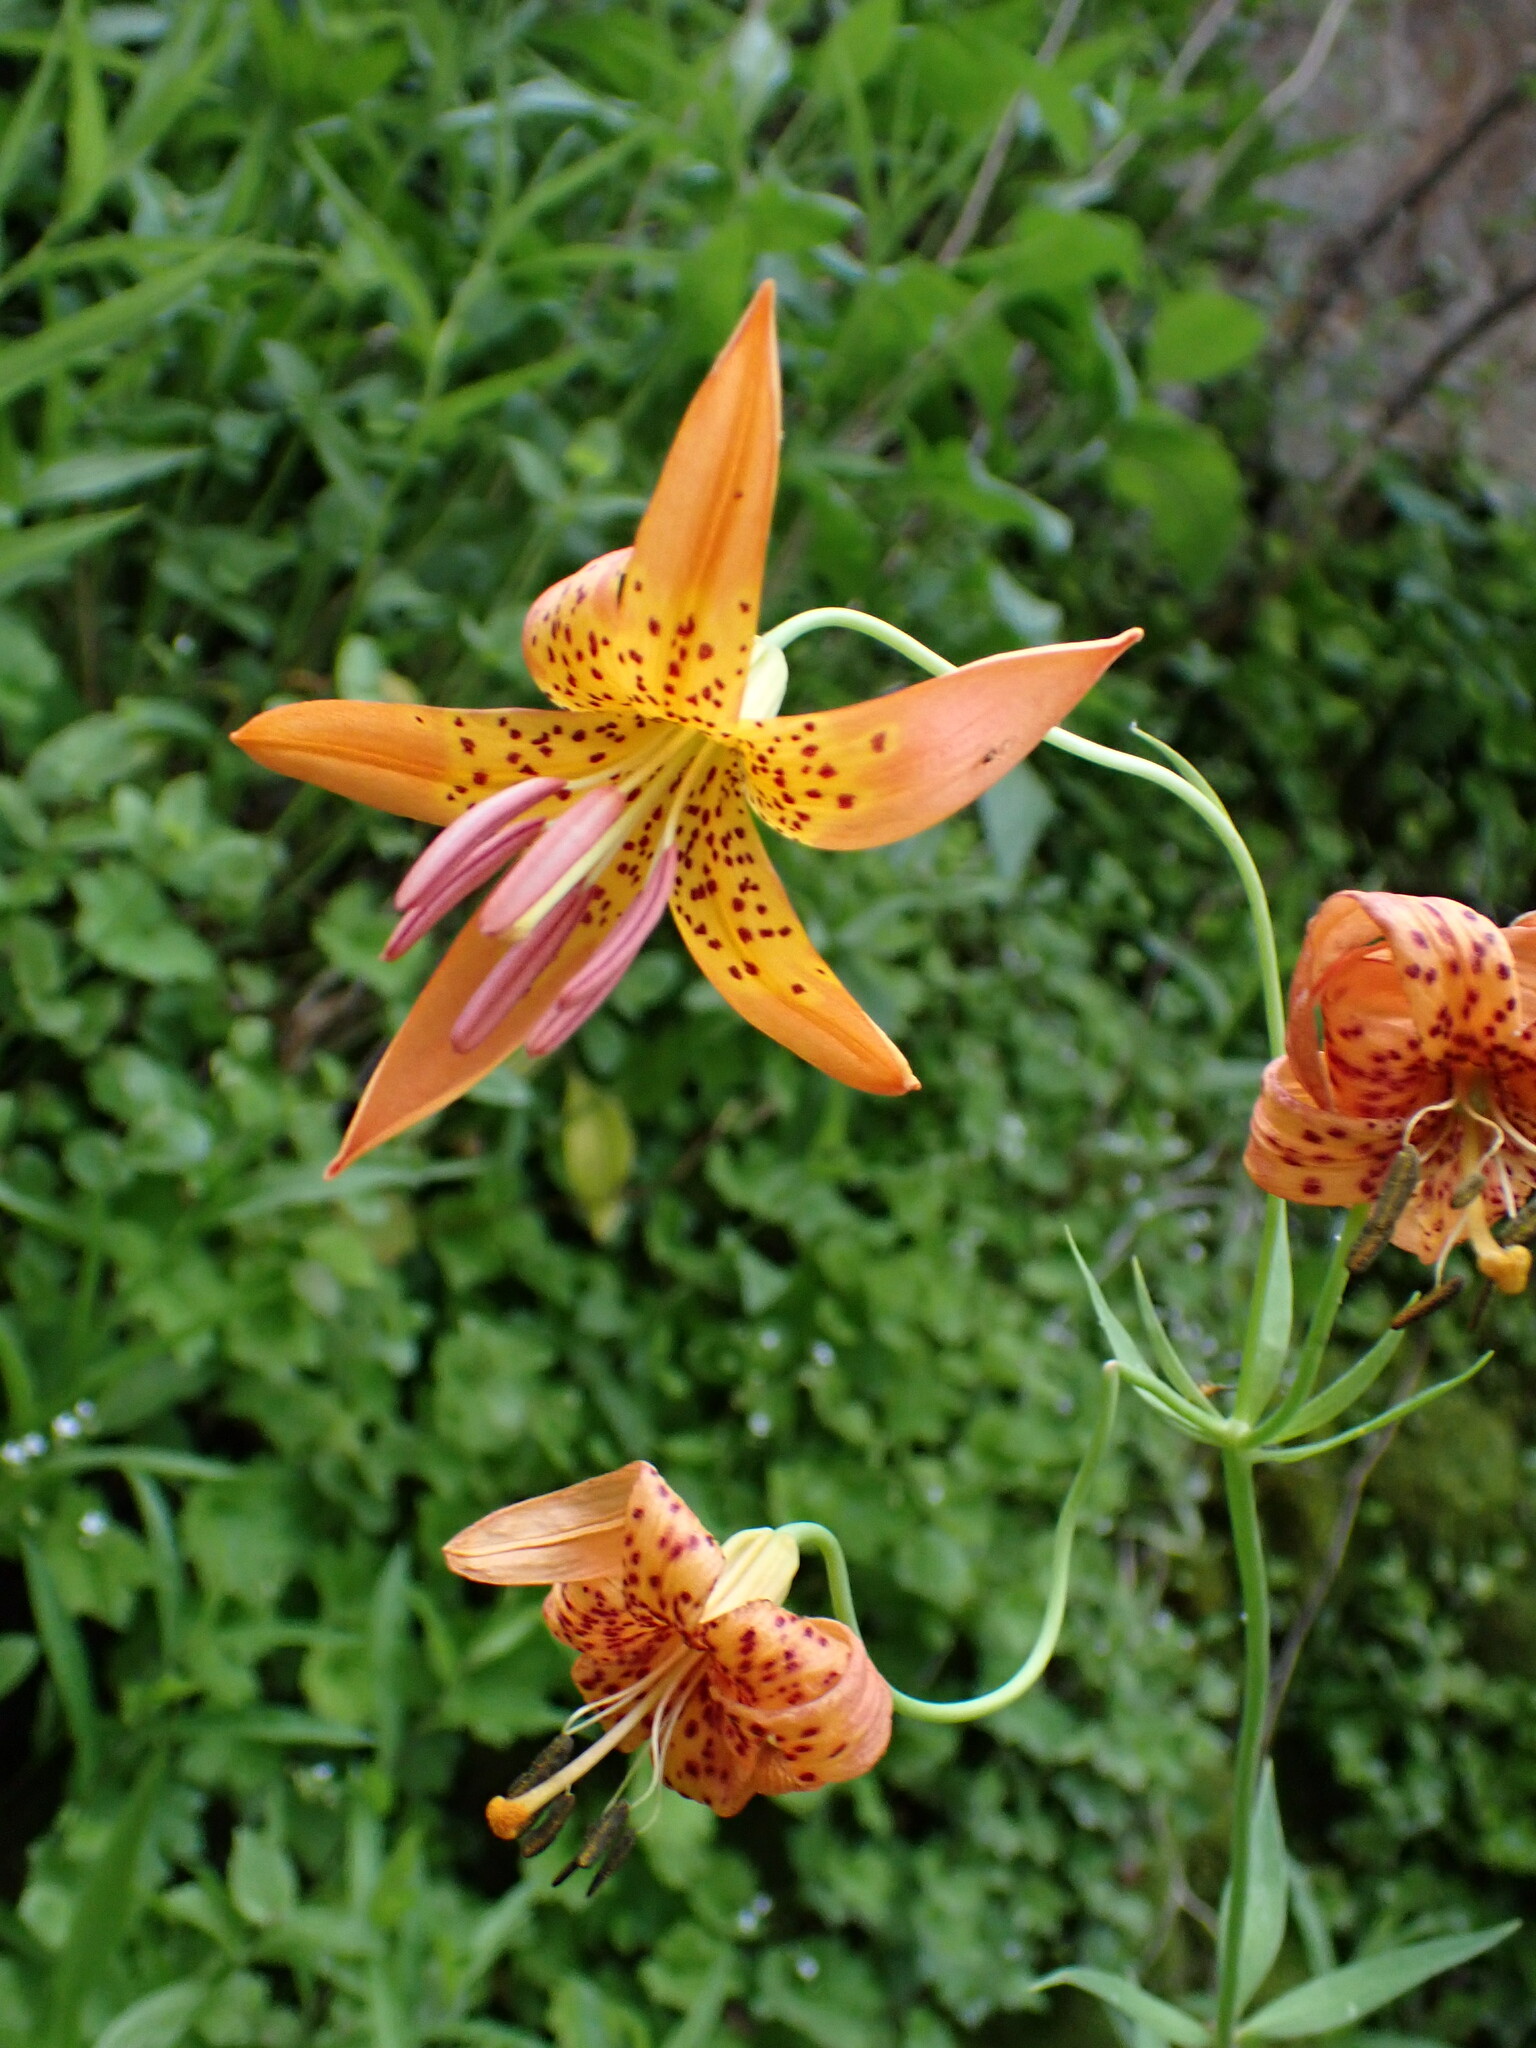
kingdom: Plantae
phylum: Tracheophyta
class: Liliopsida
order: Liliales
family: Liliaceae
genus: Lilium
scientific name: Lilium pardalinum
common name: Panther lily
